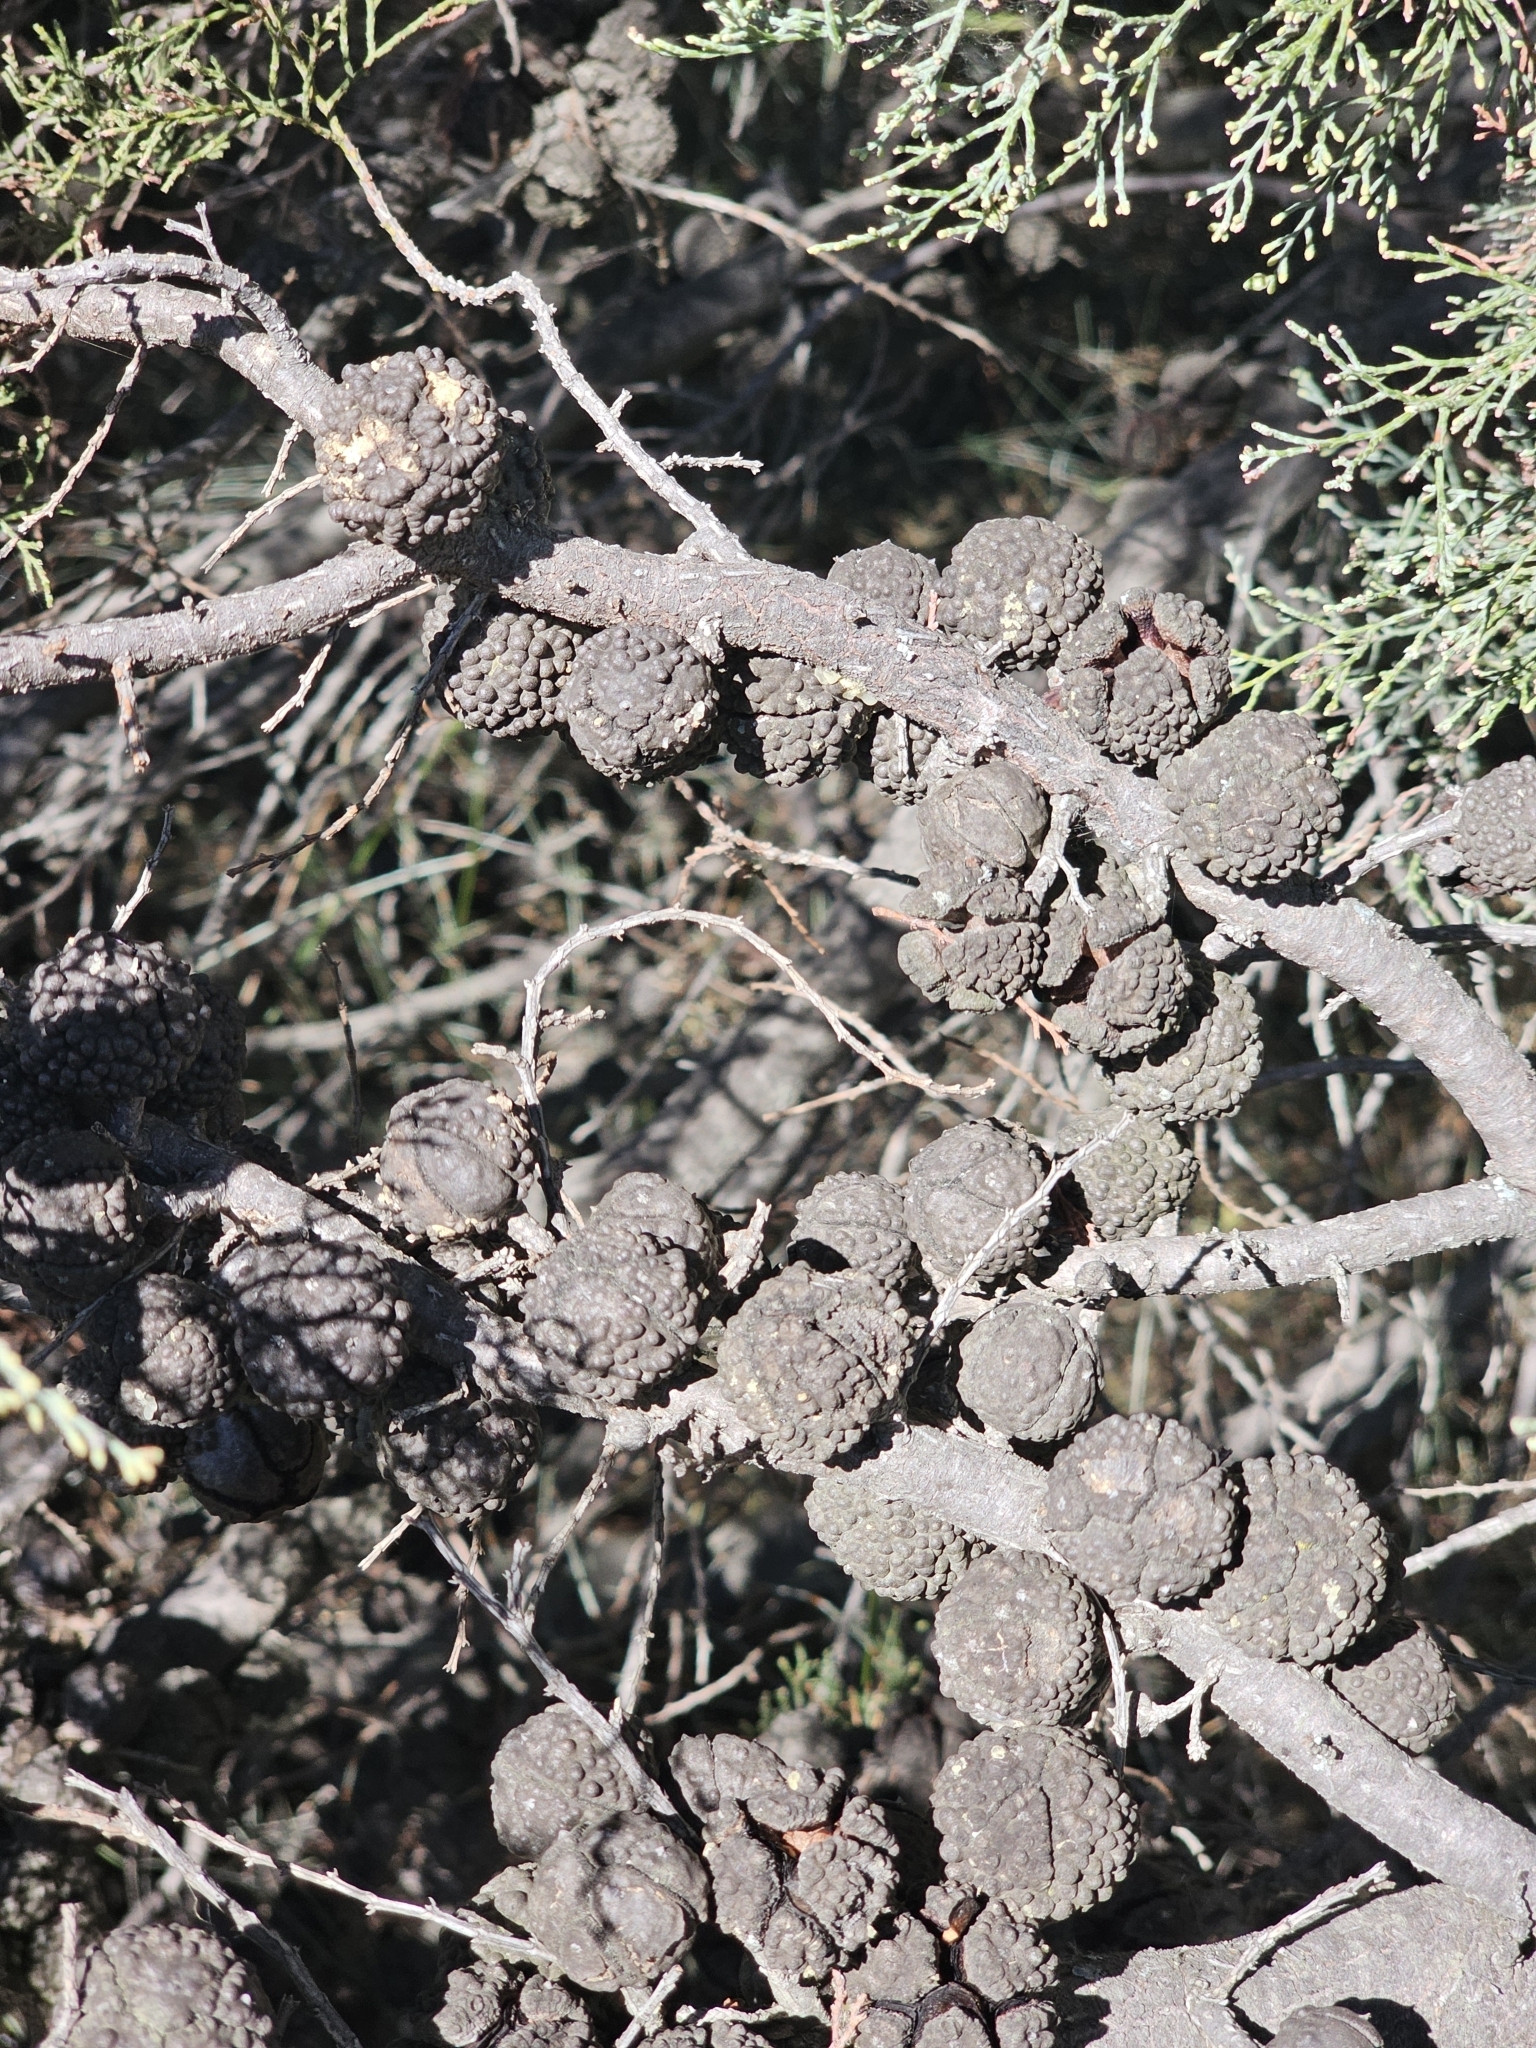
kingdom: Plantae
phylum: Tracheophyta
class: Pinopsida
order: Pinales
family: Cupressaceae
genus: Callitris
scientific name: Callitris verrucosa
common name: Scrub cypress-pine
